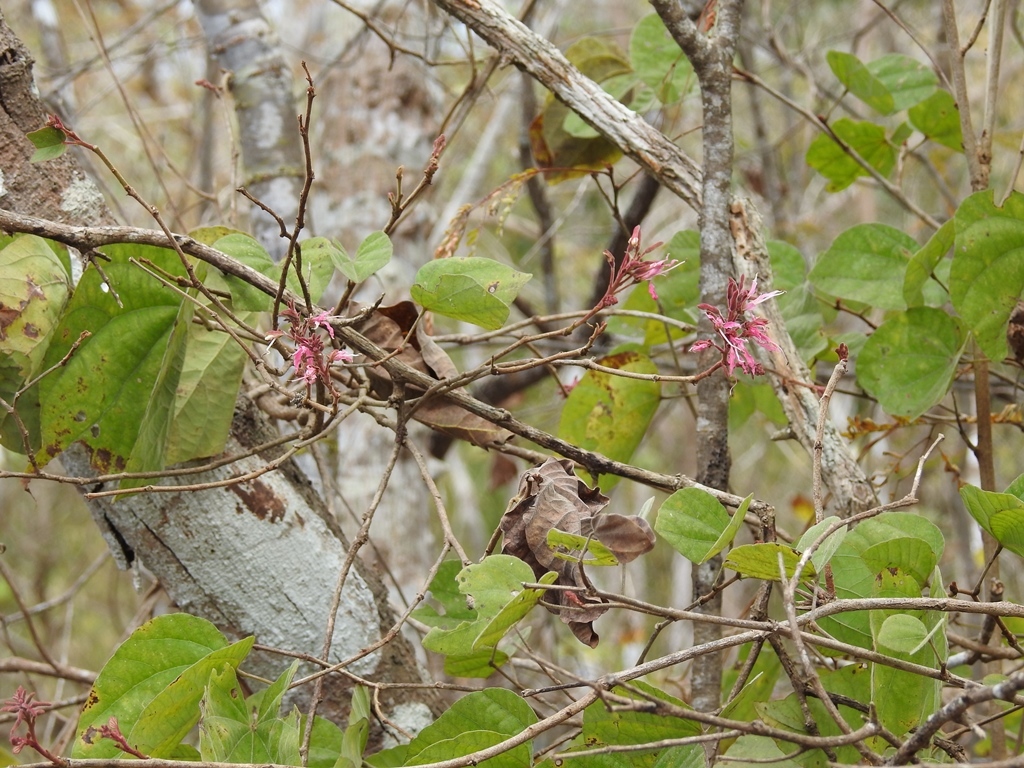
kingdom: Plantae
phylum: Tracheophyta
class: Magnoliopsida
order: Fabales
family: Fabaceae
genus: Bauhinia
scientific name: Bauhinia divaricata
